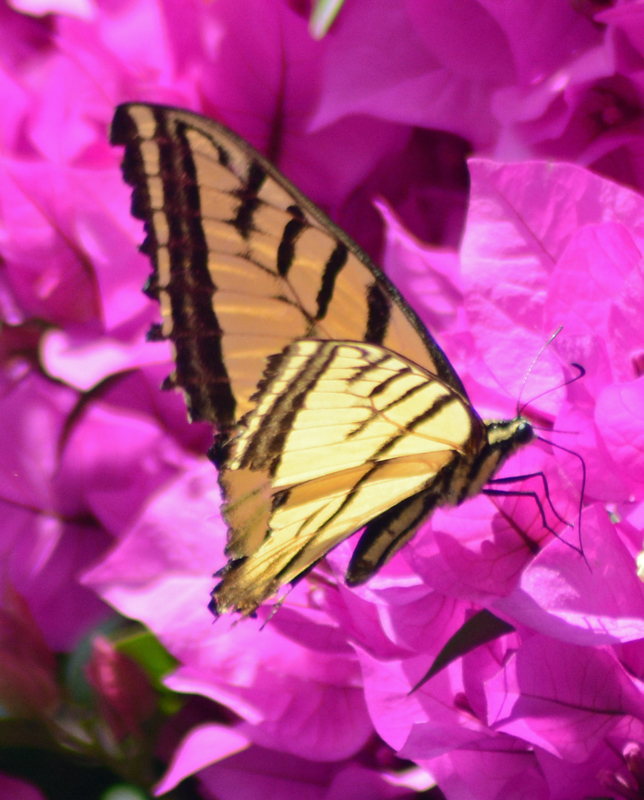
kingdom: Animalia
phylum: Arthropoda
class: Insecta
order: Lepidoptera
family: Papilionidae
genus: Papilio
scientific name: Papilio multicaudata
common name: Two-tailed tiger swallowtail
